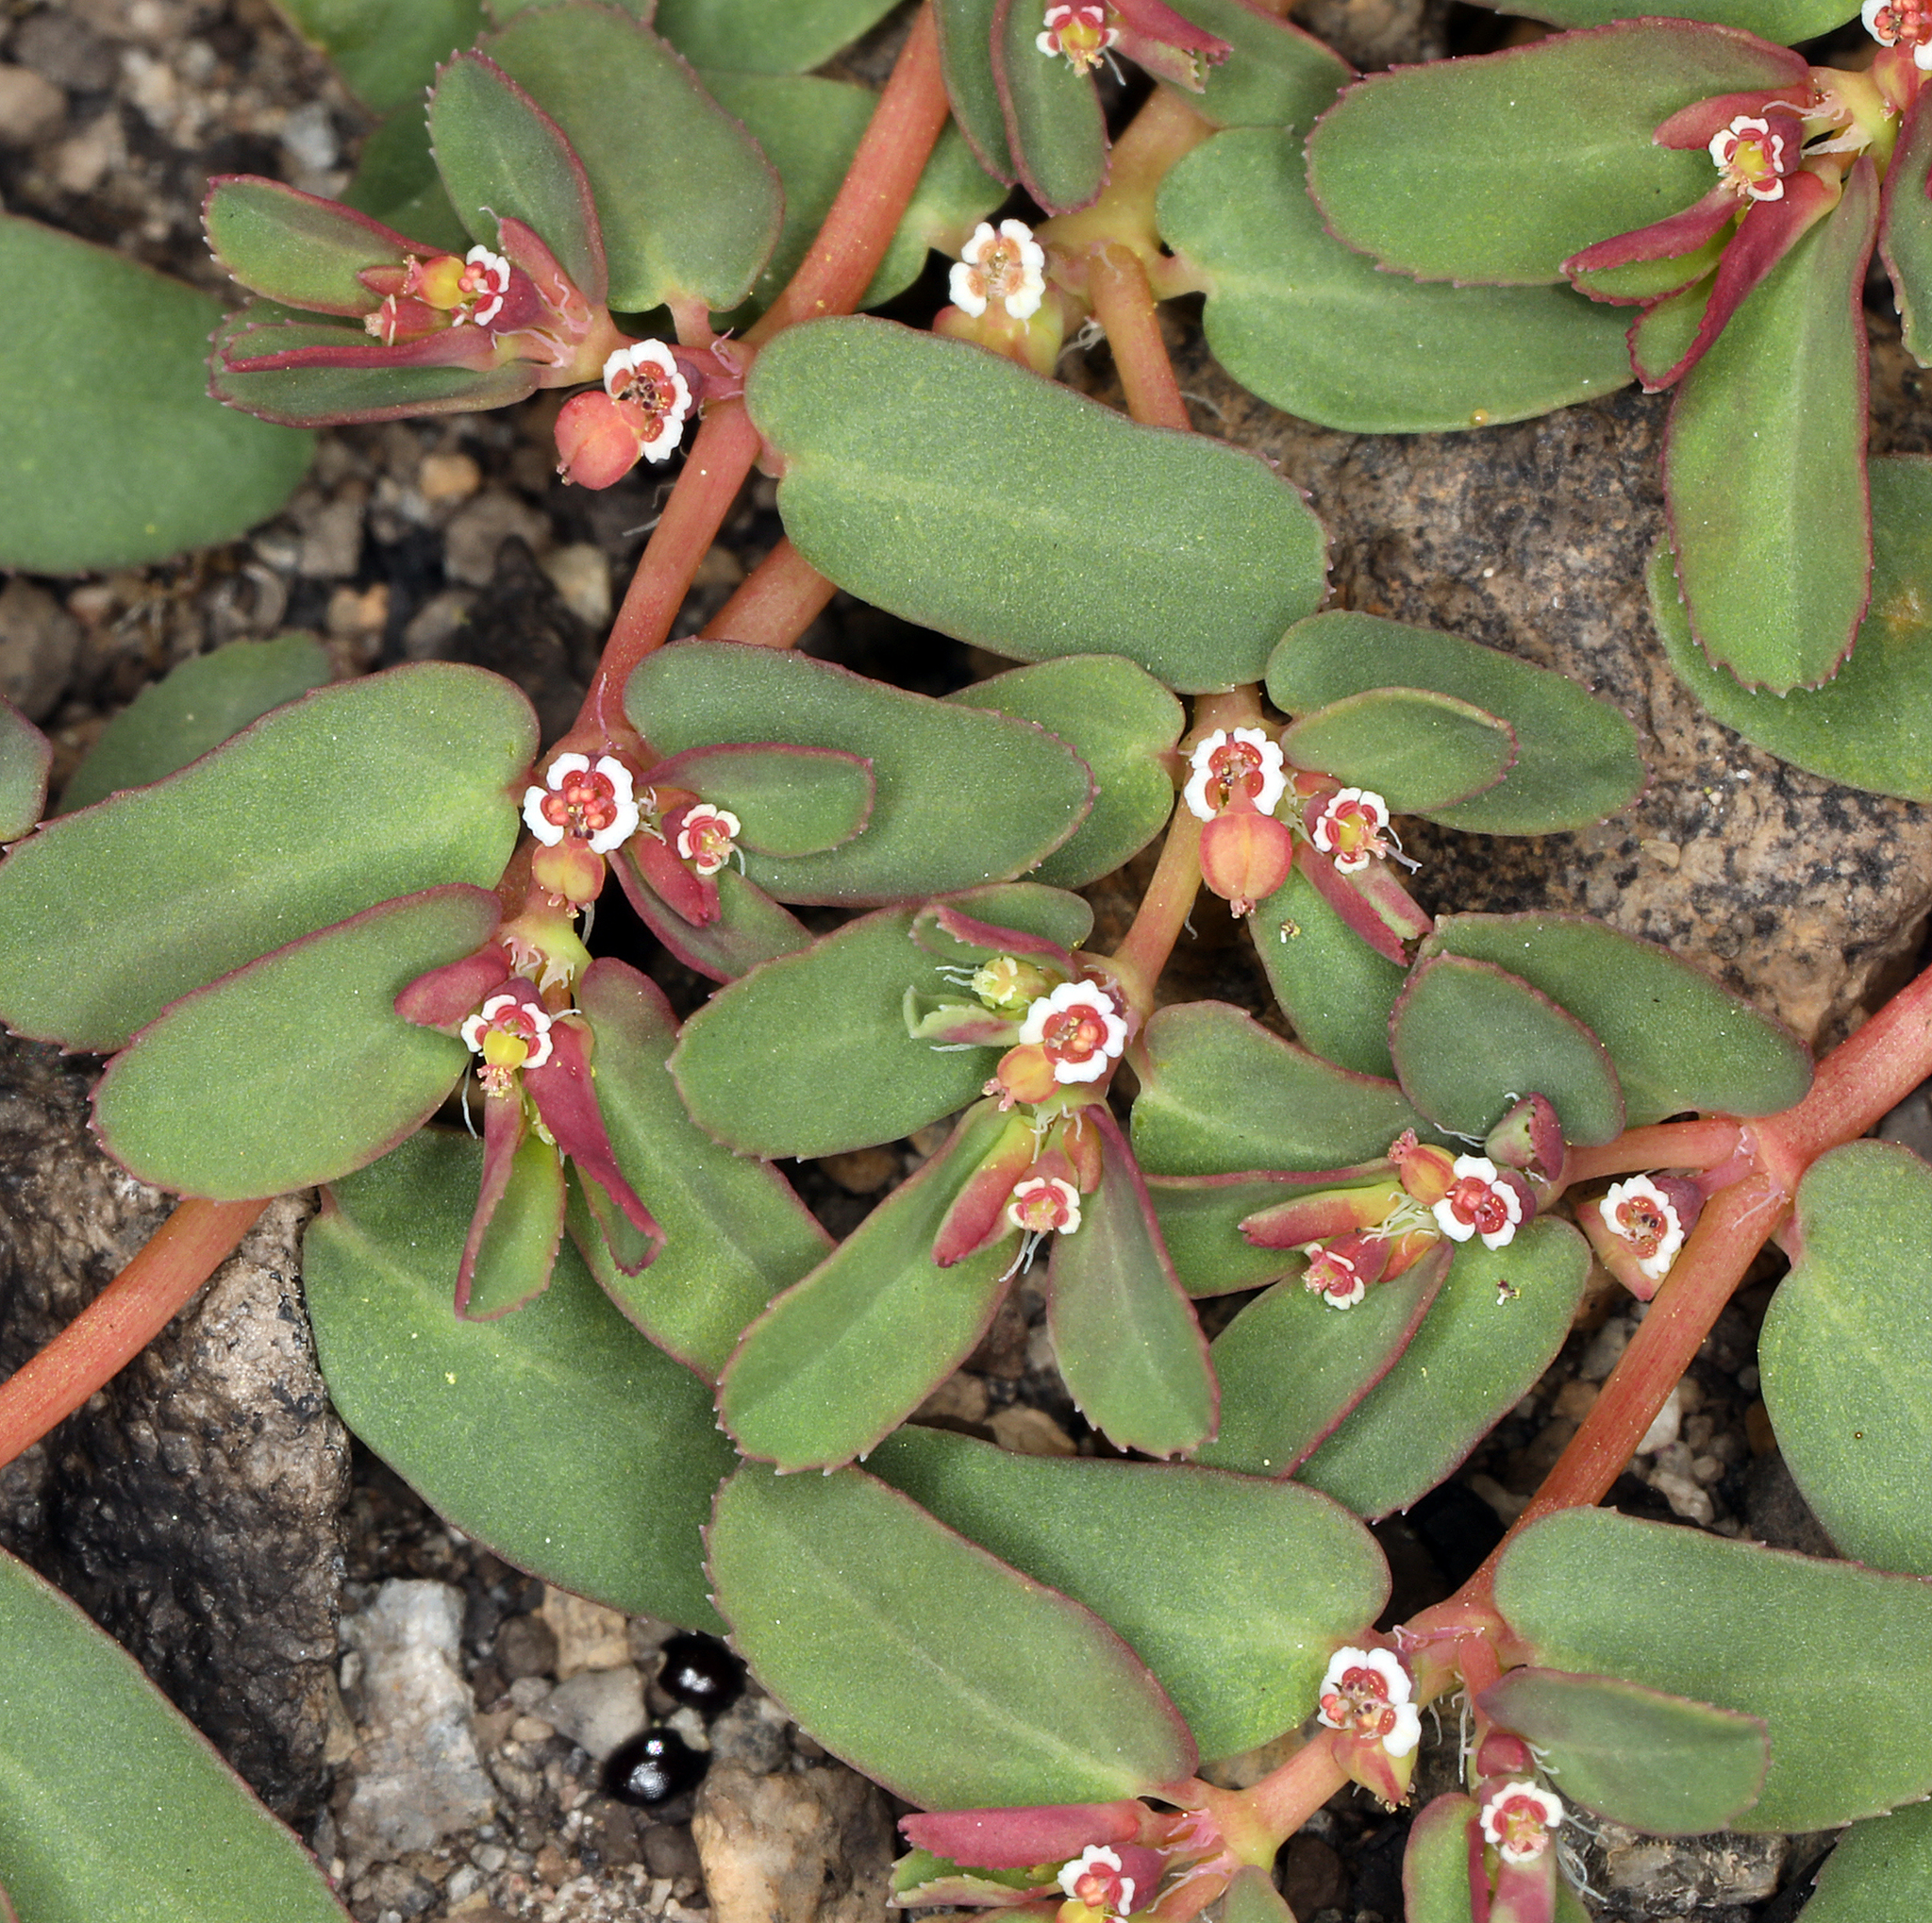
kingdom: Plantae
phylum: Tracheophyta
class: Magnoliopsida
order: Malpighiales
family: Euphorbiaceae
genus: Euphorbia
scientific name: Euphorbia serpillifolia
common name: Thyme-leaf spurge
